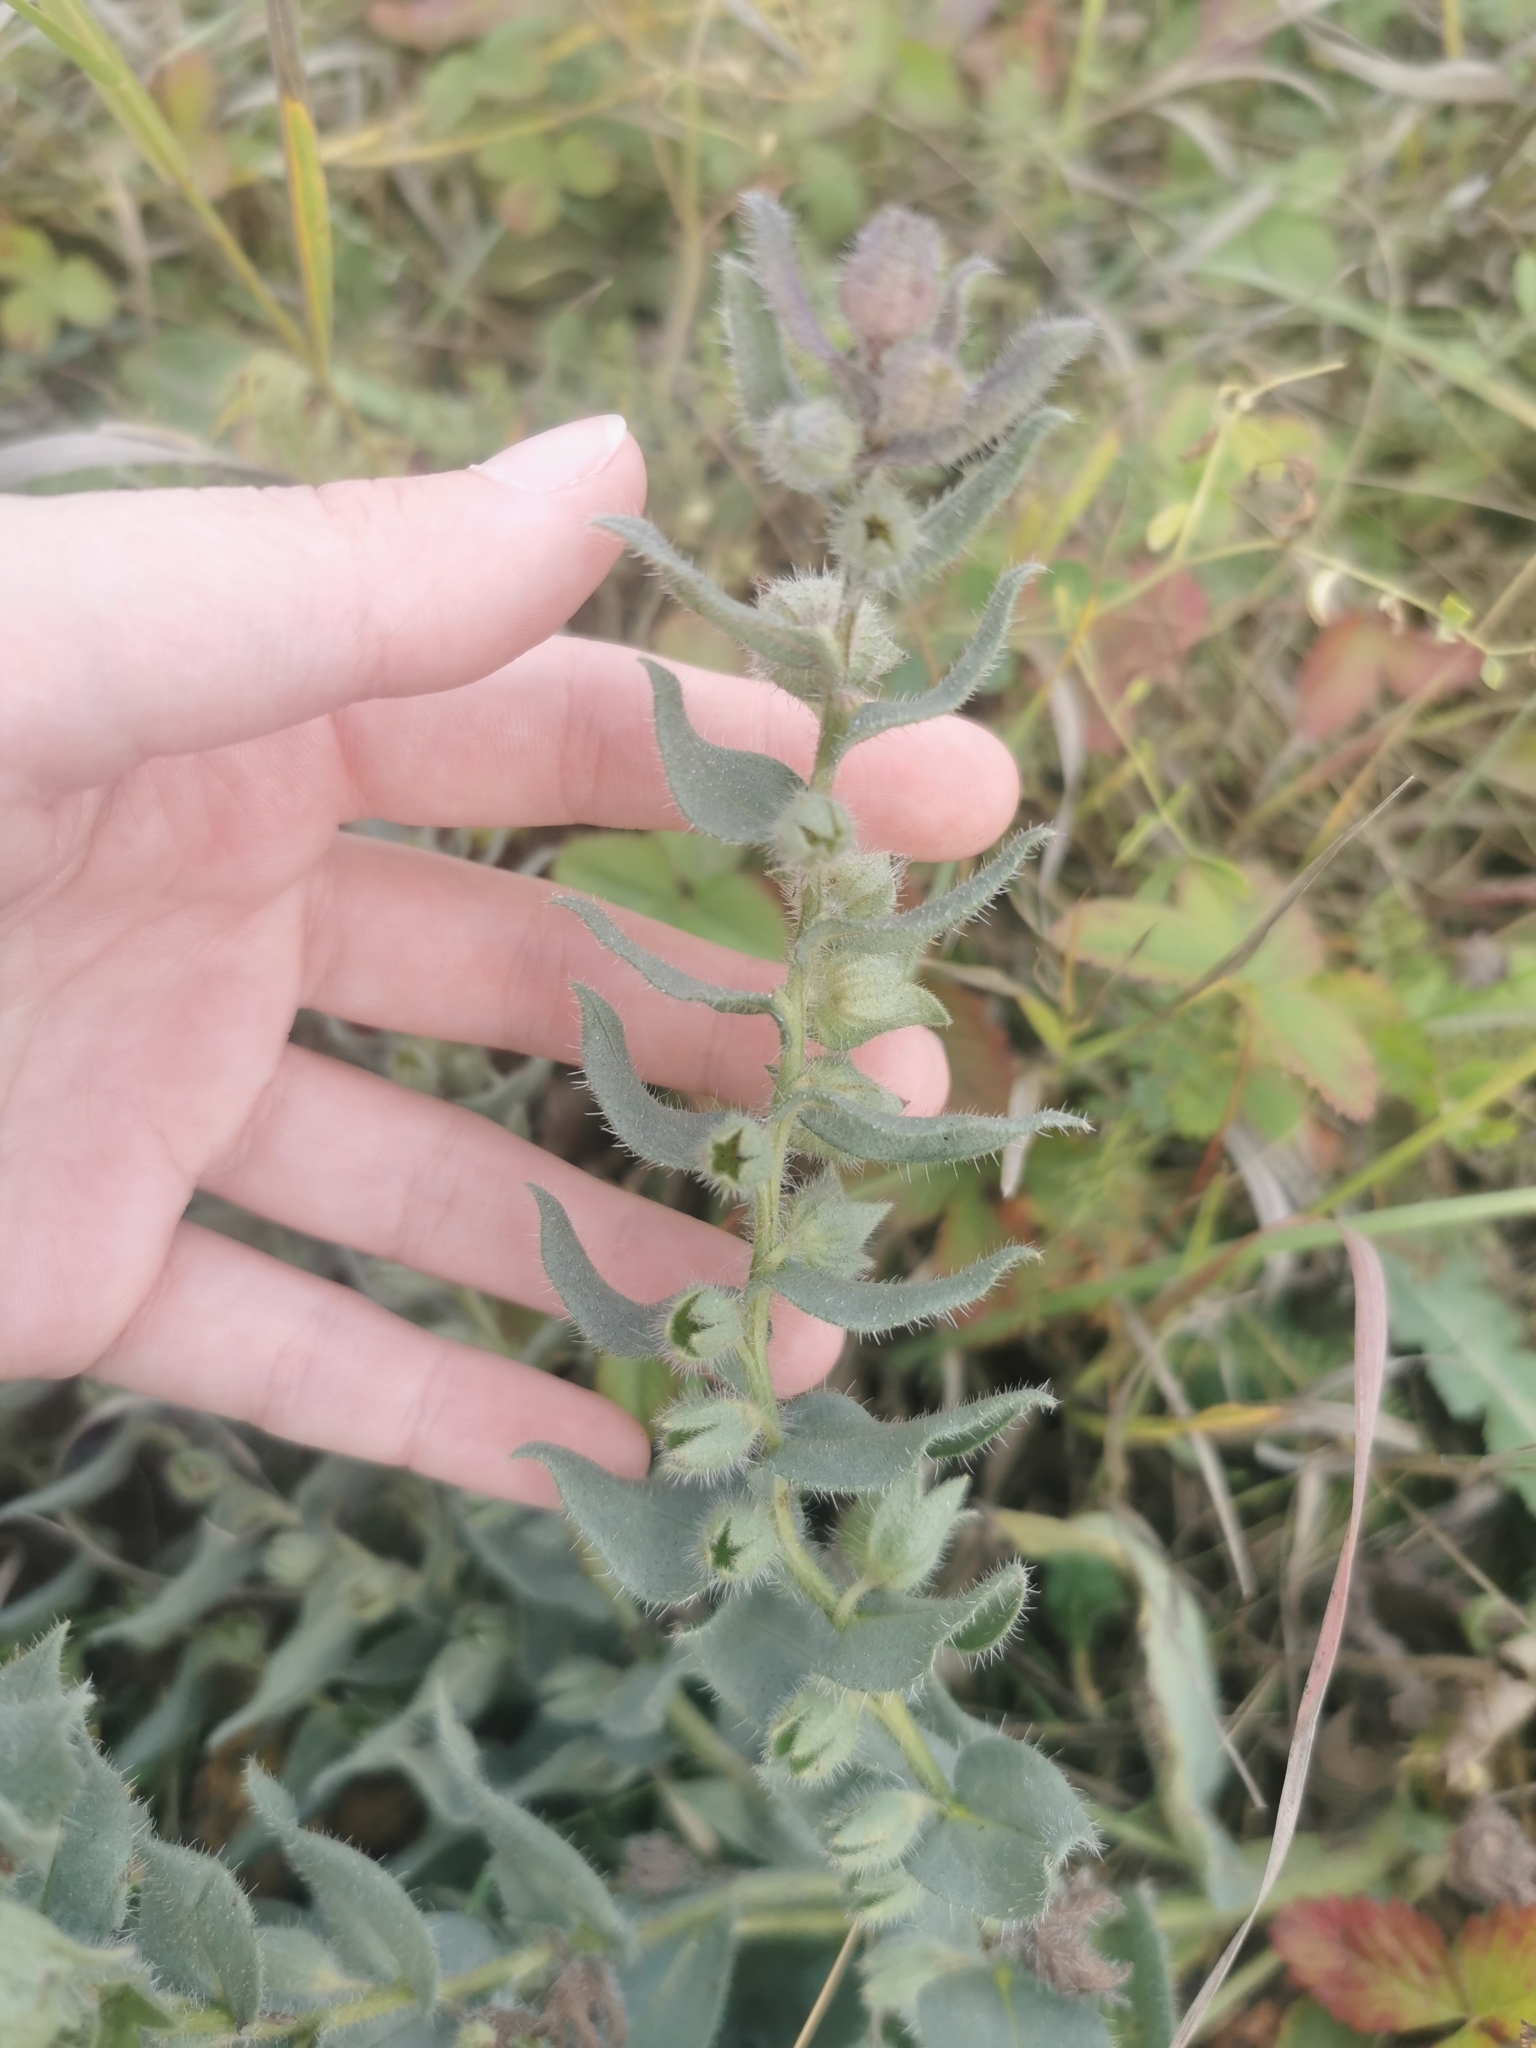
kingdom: Plantae
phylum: Tracheophyta
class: Magnoliopsida
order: Boraginales
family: Boraginaceae
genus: Nonea
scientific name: Nonea pulla
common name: Brown nonea
